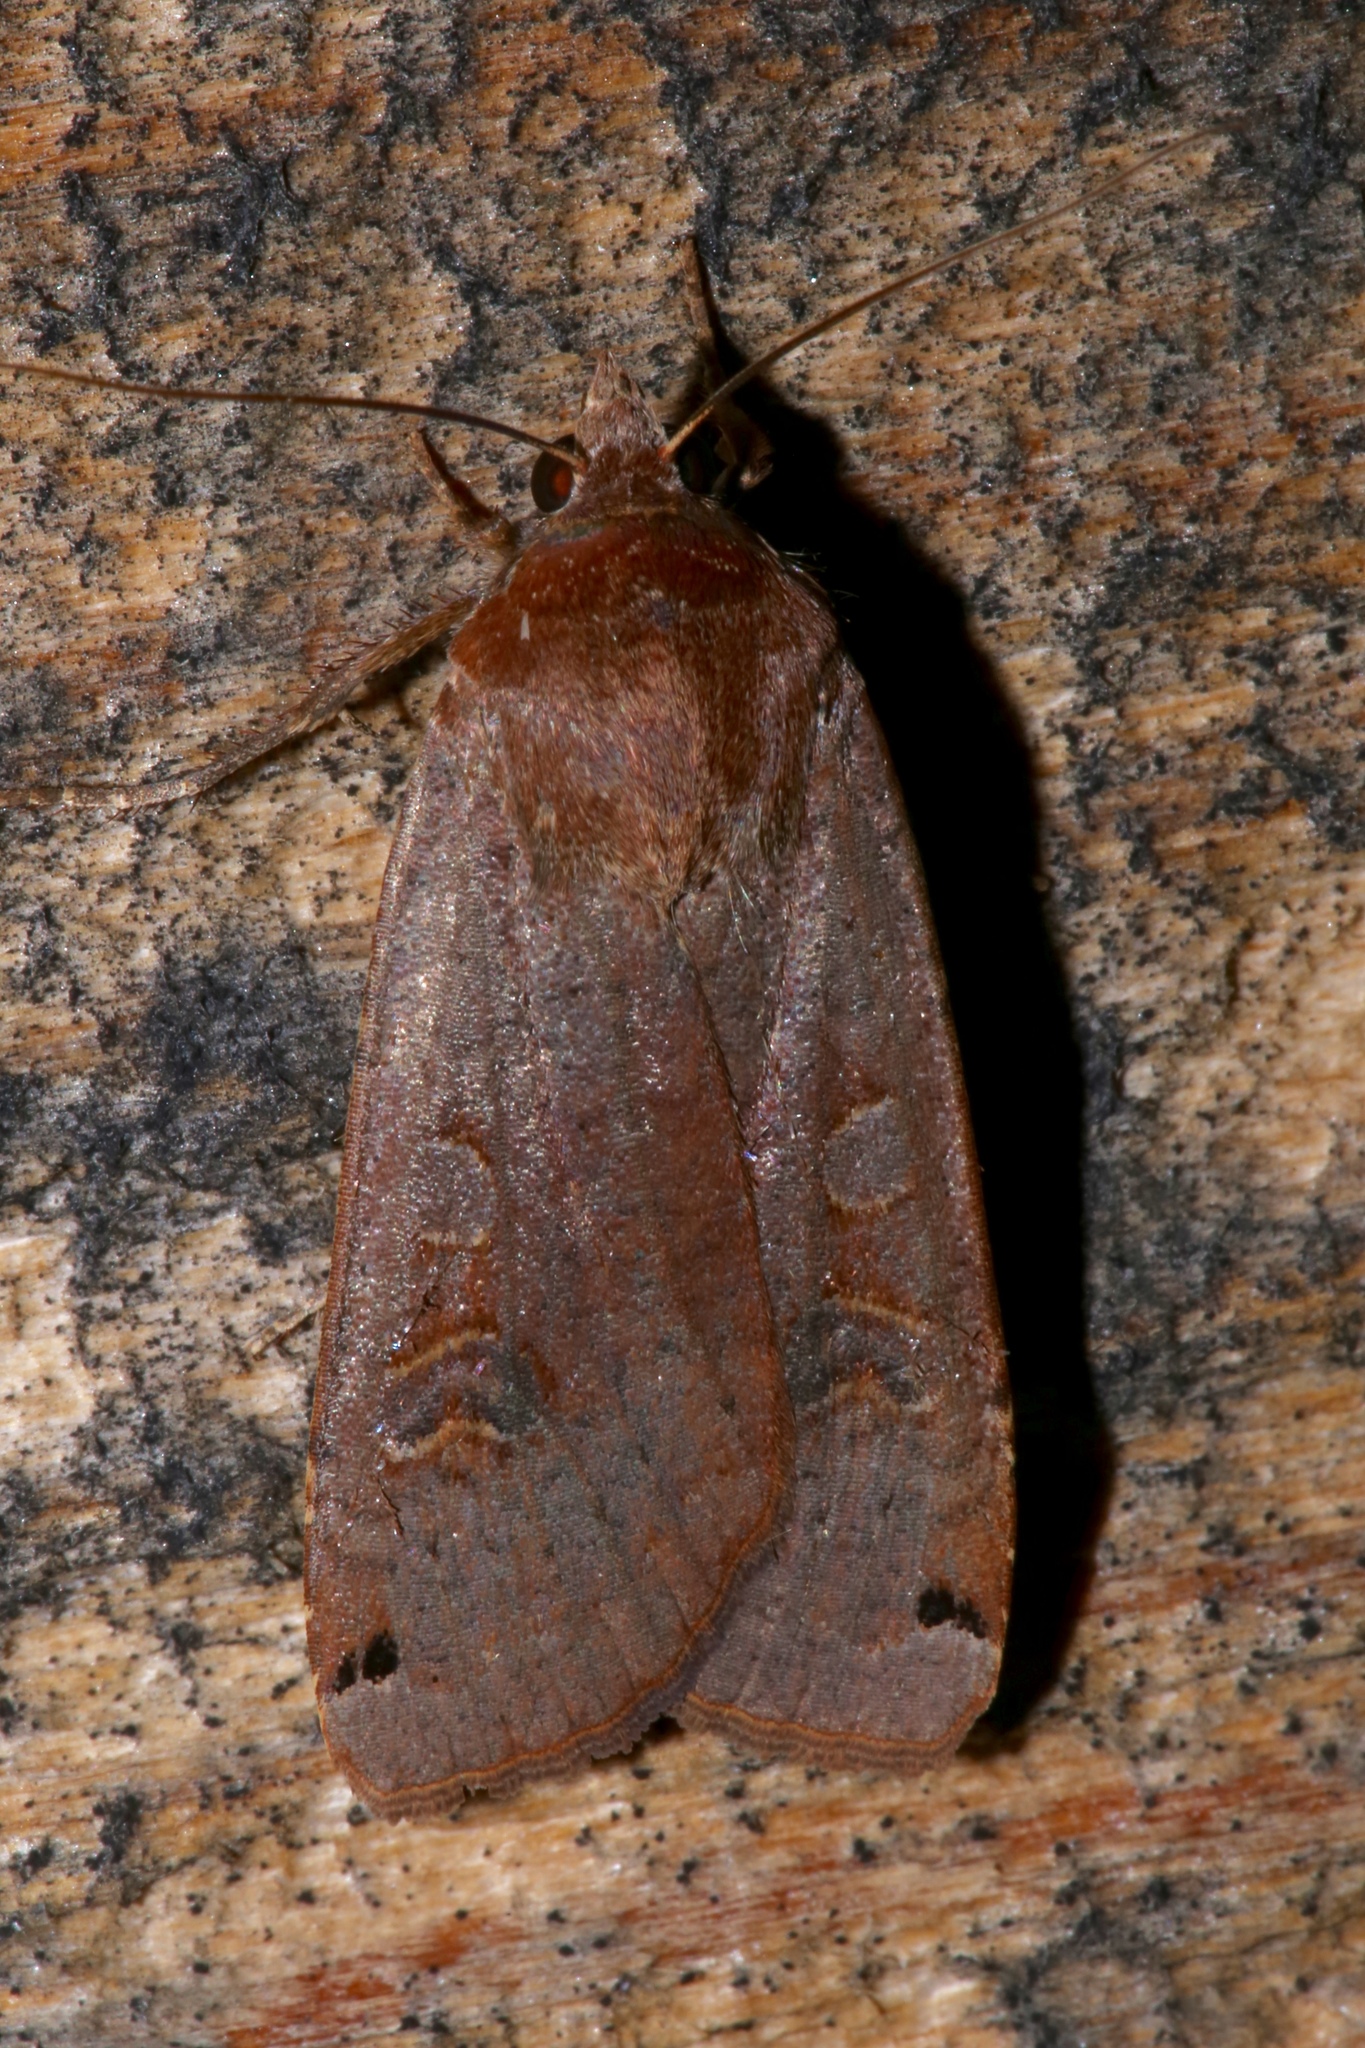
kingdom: Animalia
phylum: Arthropoda
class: Insecta
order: Lepidoptera
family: Noctuidae
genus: Noctua
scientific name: Noctua pronuba
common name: Large yellow underwing
